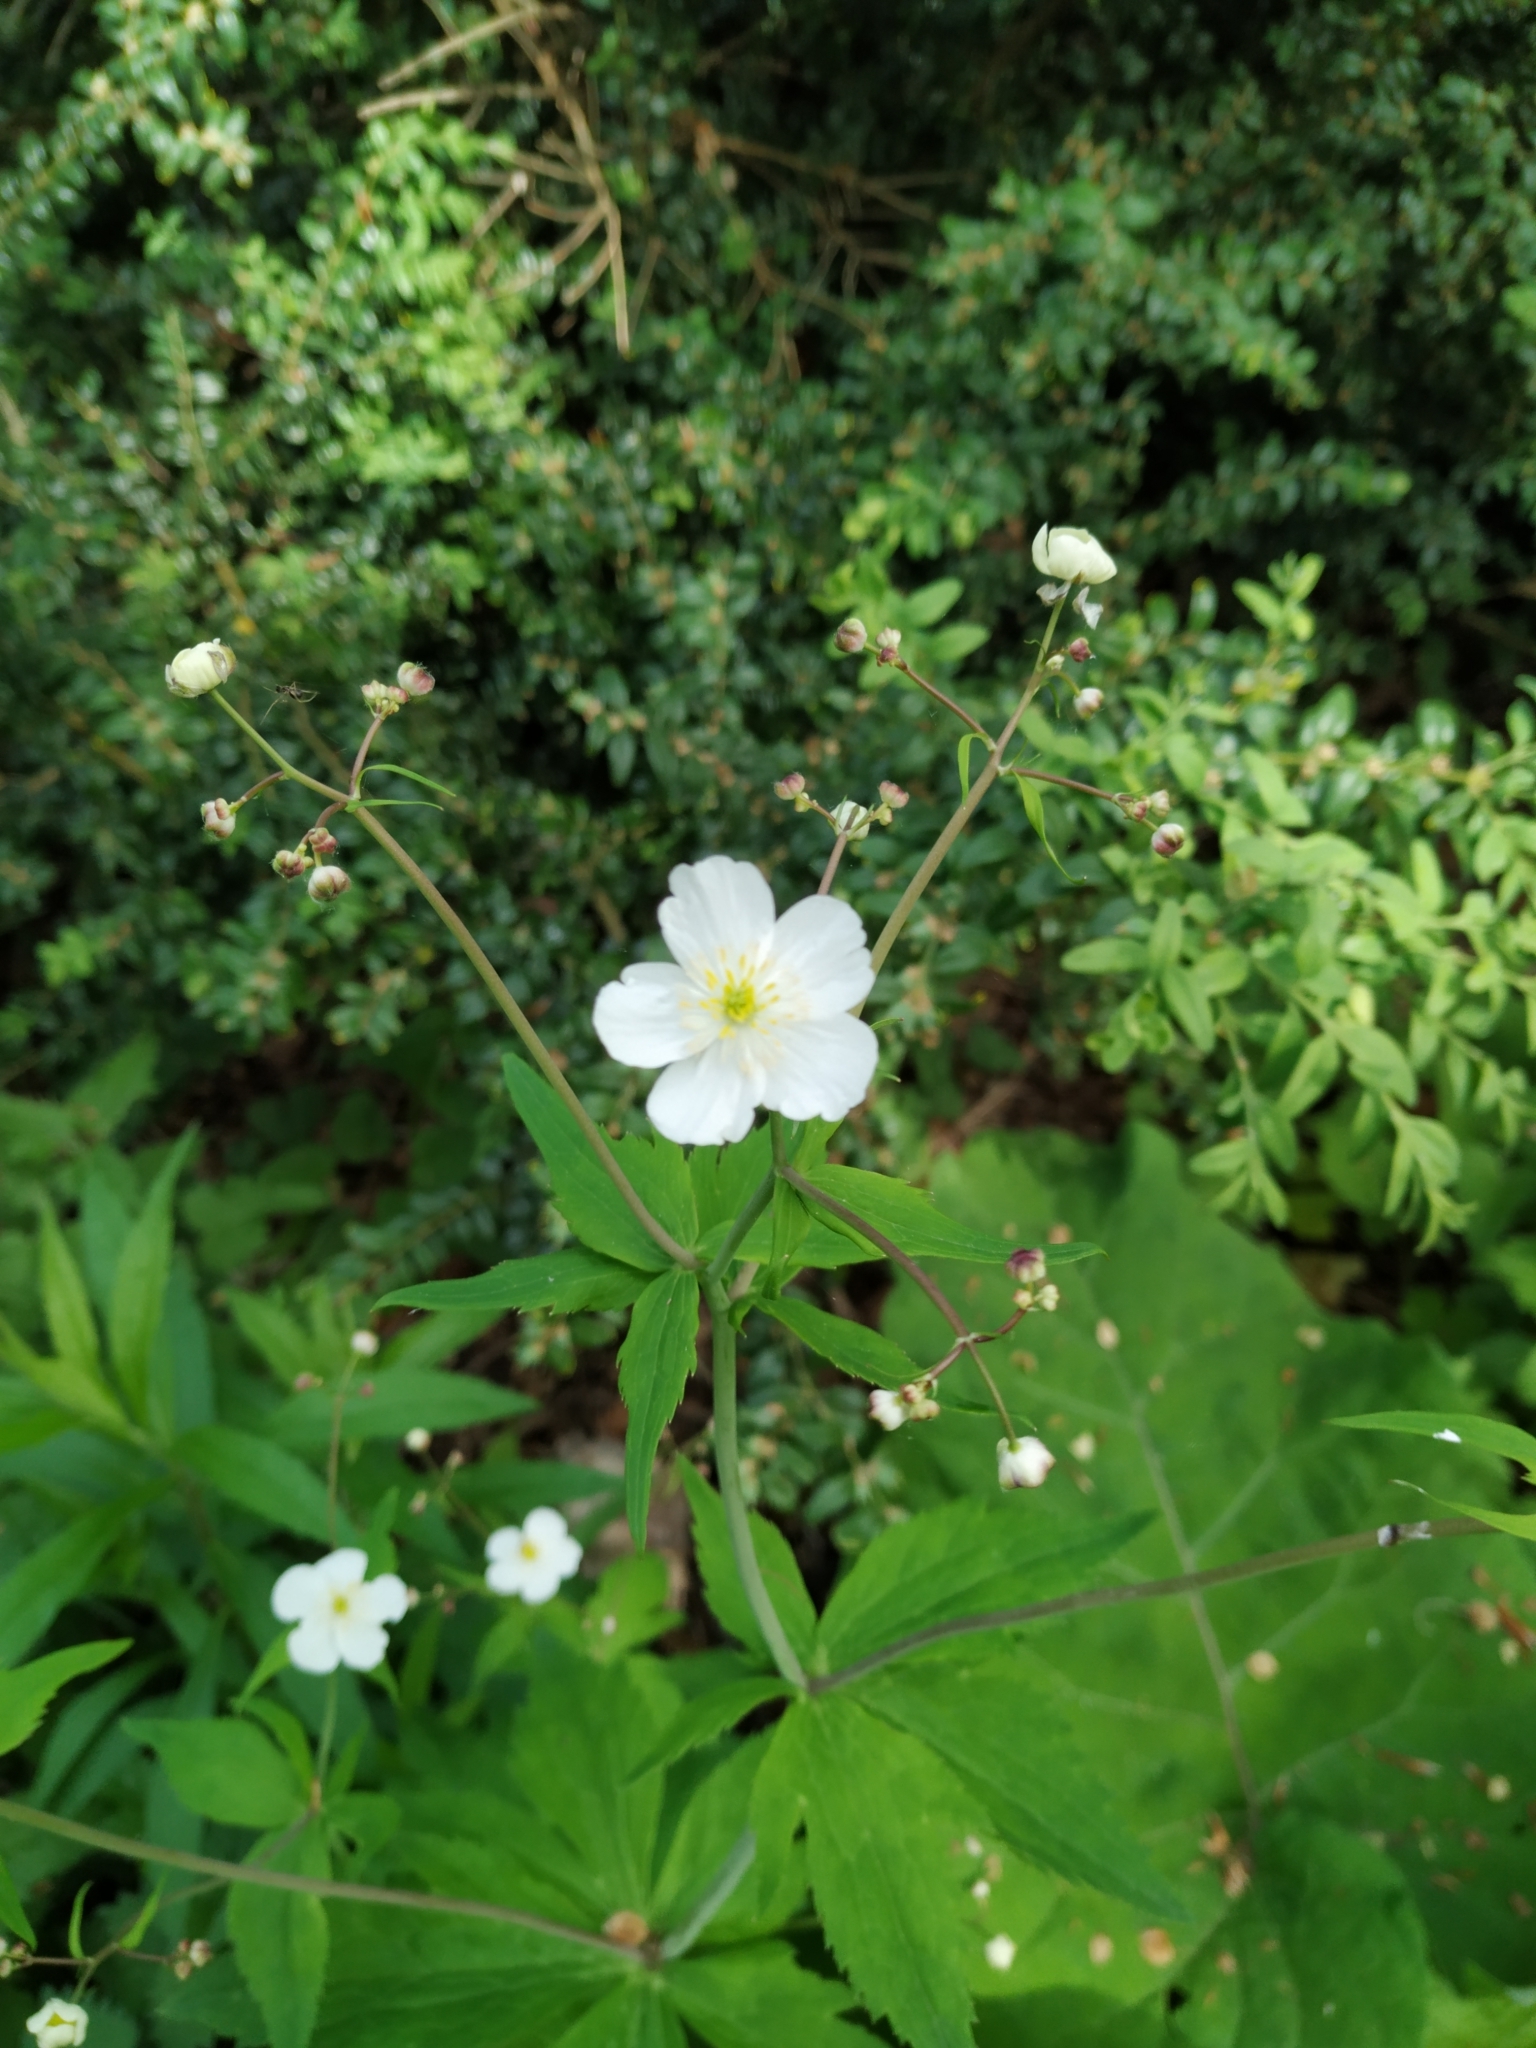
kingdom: Plantae
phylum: Tracheophyta
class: Magnoliopsida
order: Ranunculales
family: Ranunculaceae
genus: Ranunculus
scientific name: Ranunculus aconitifolius
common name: Aconite-leaved buttercup
